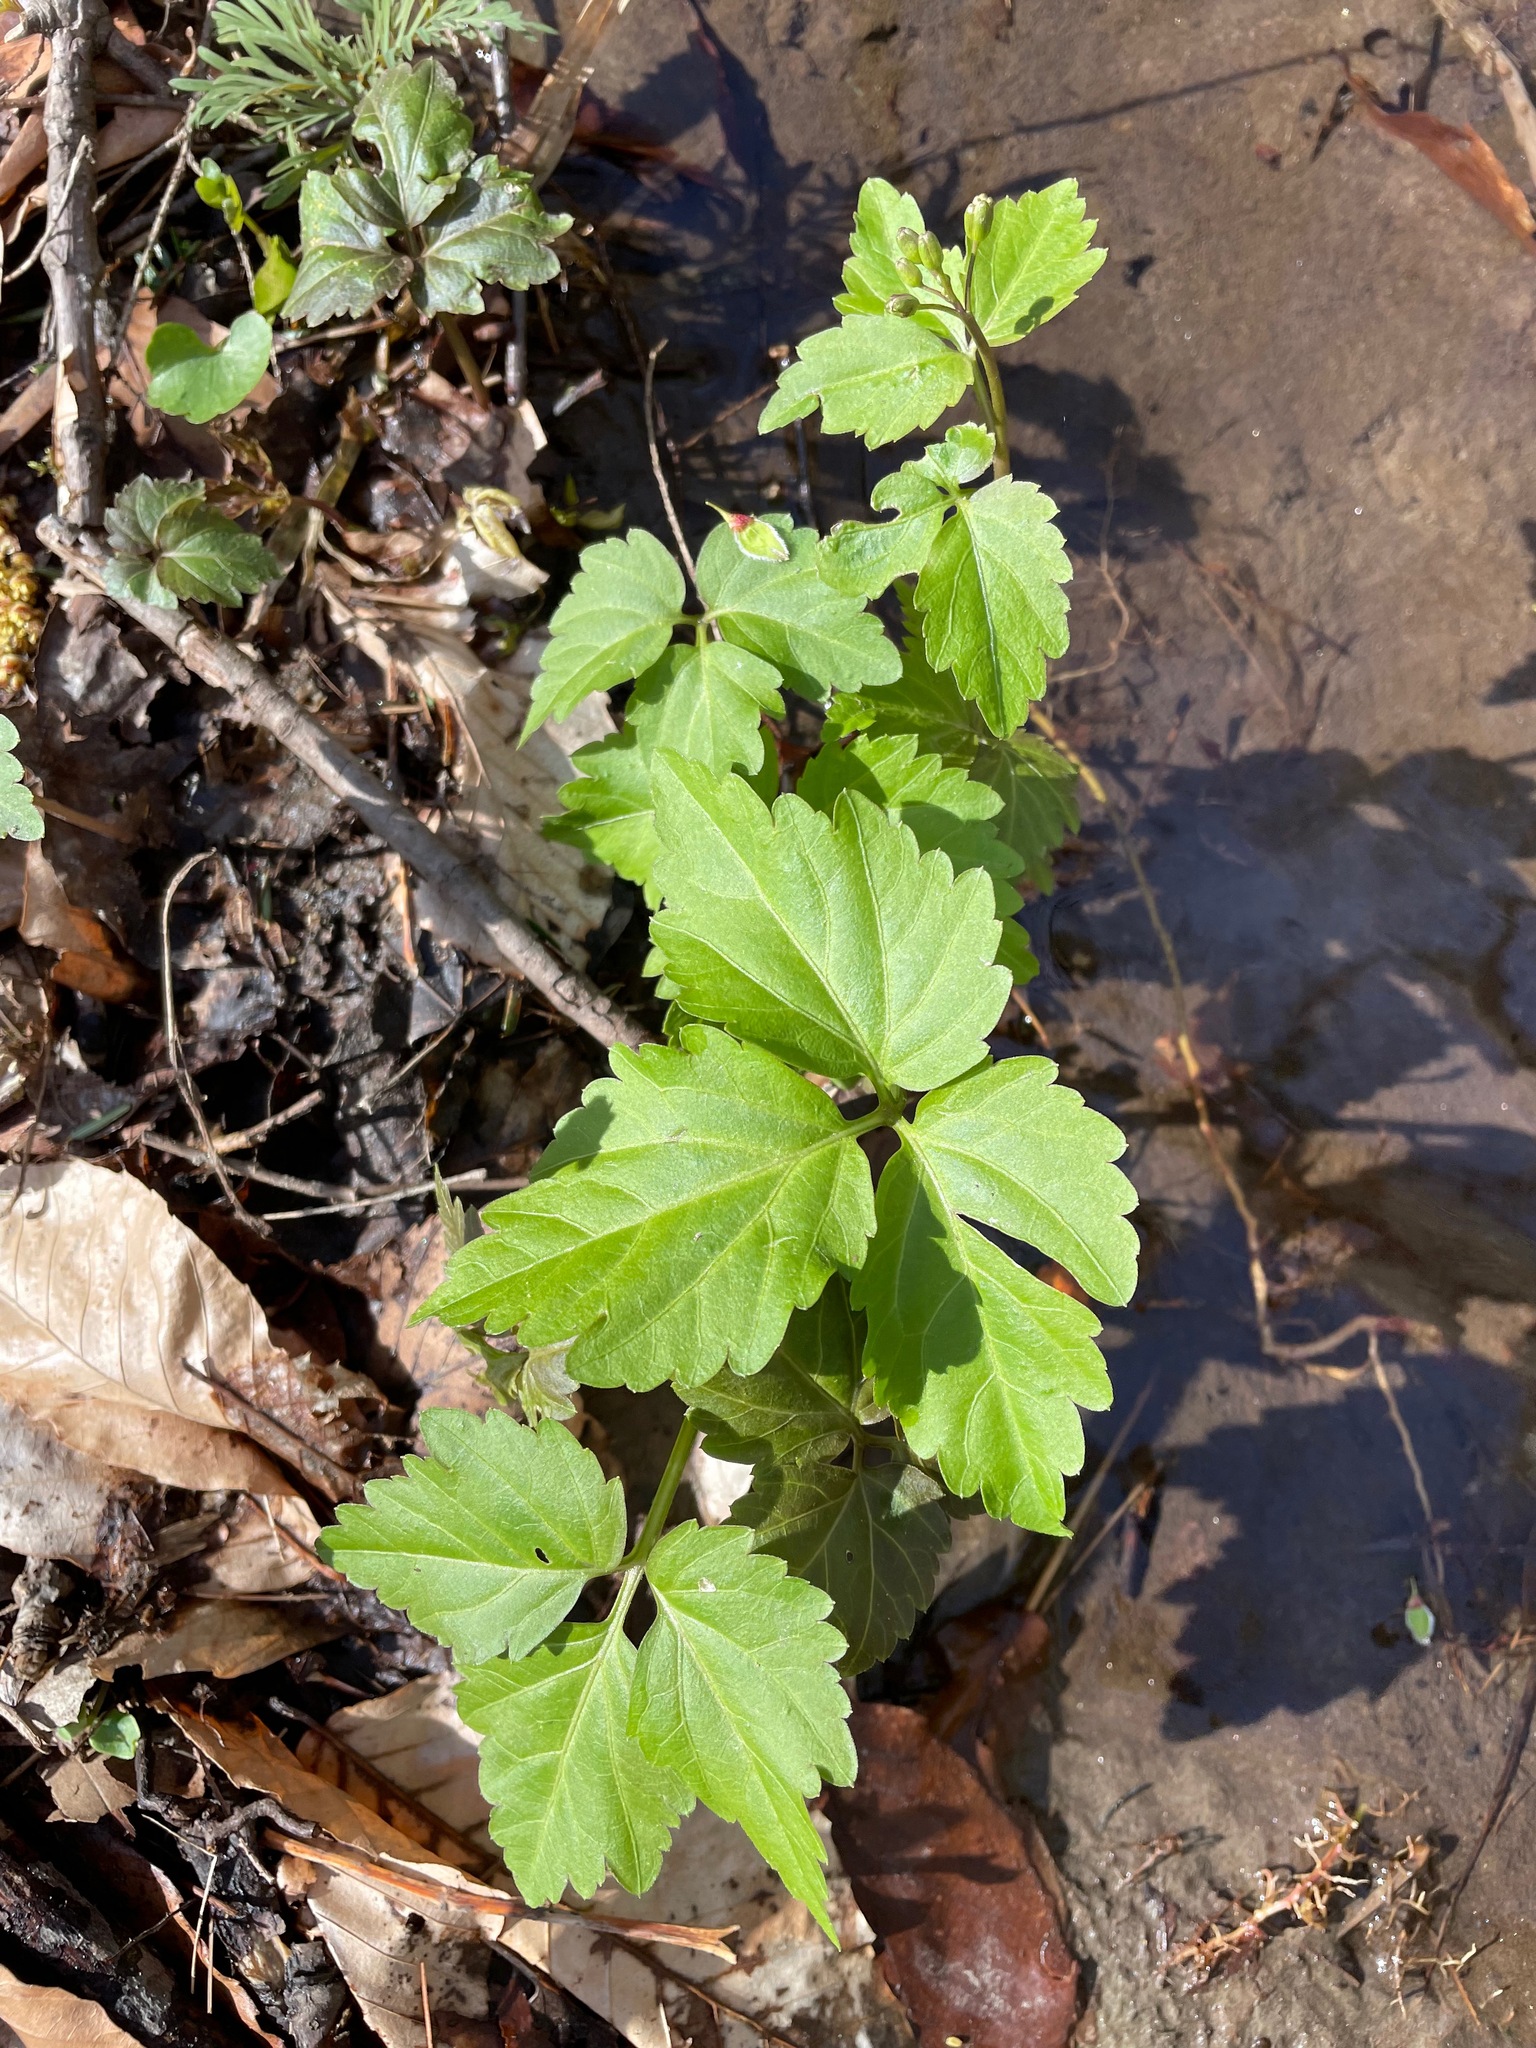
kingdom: Plantae
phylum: Tracheophyta
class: Magnoliopsida
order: Brassicales
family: Brassicaceae
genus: Cardamine
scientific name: Cardamine diphylla
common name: Broad-leaved toothwort
